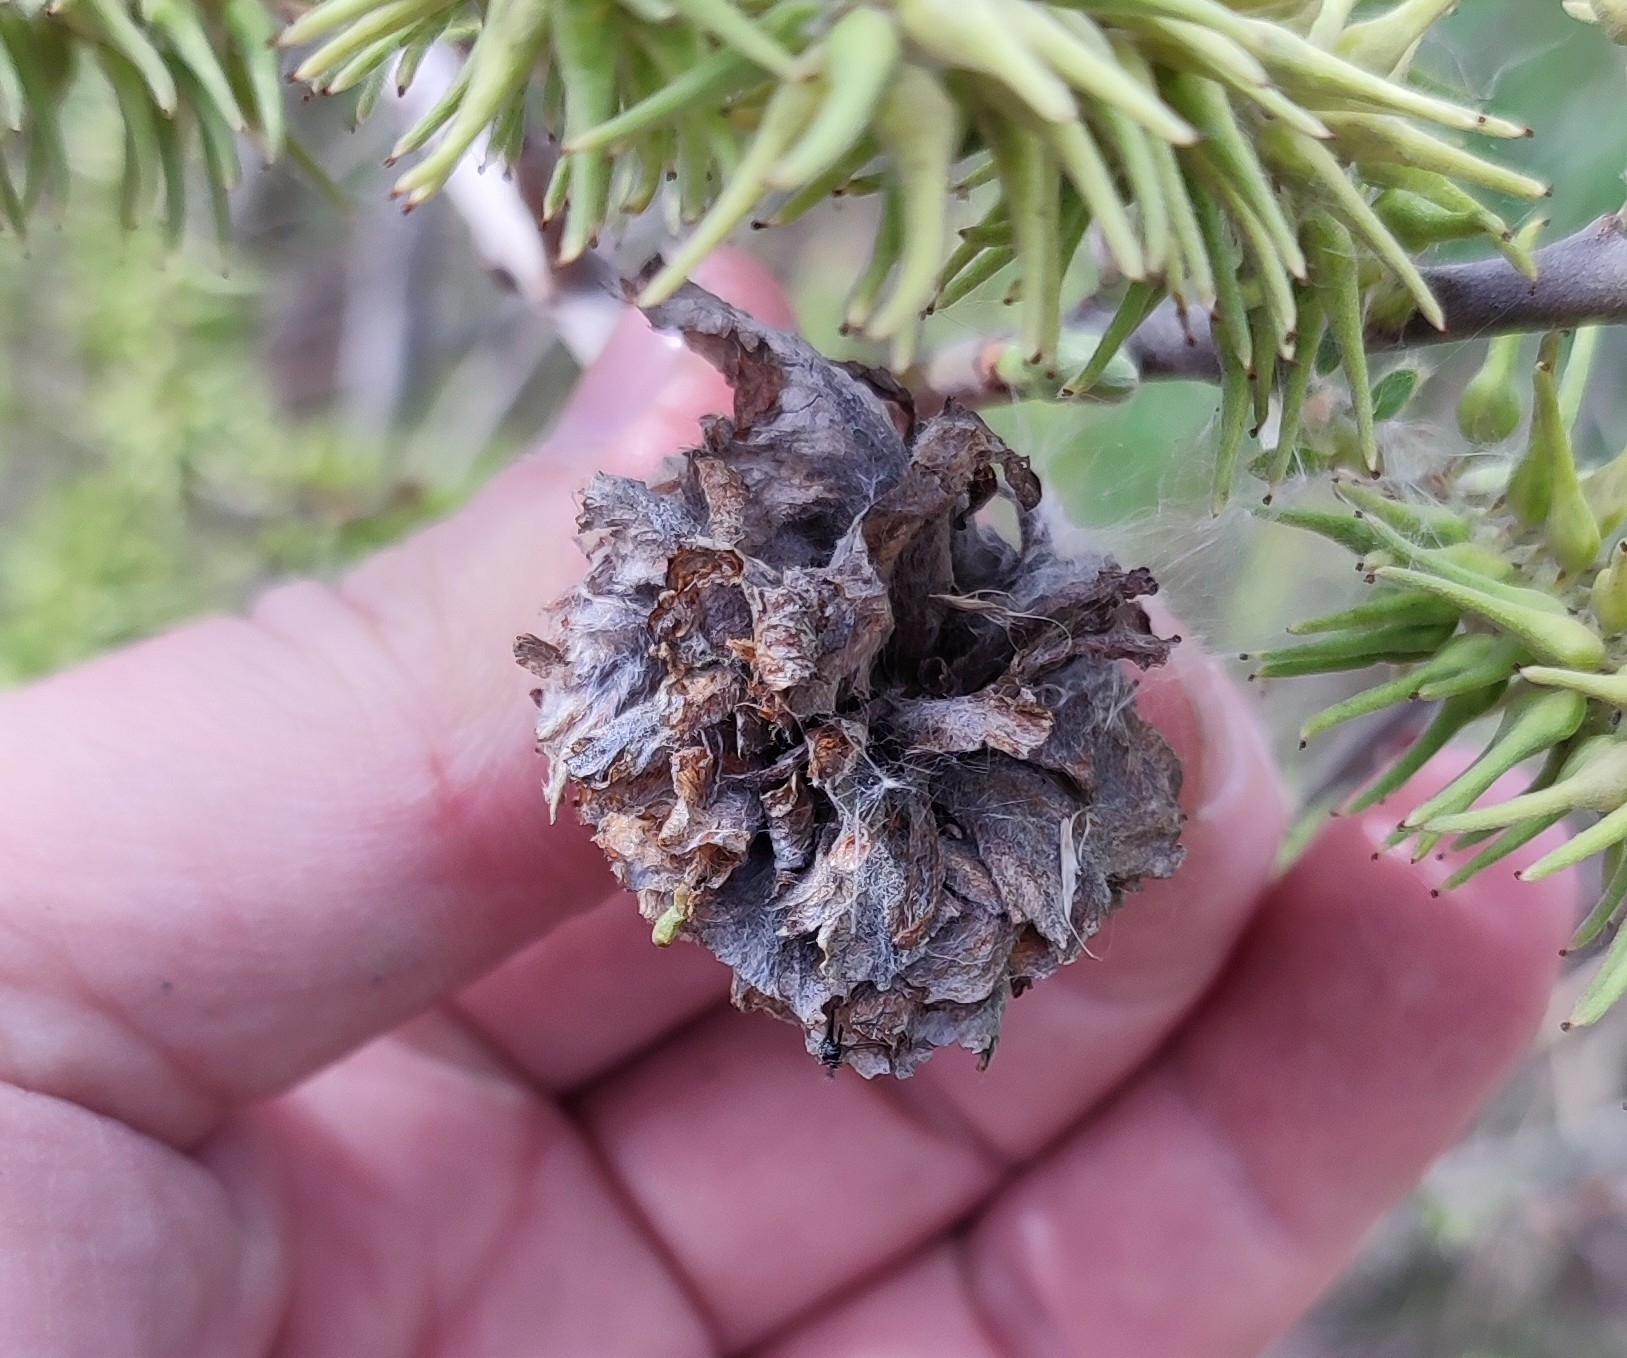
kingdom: Animalia
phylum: Arthropoda
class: Insecta
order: Diptera
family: Cecidomyiidae
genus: Rabdophaga
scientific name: Rabdophaga rosaria
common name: Willow rose gall midge
